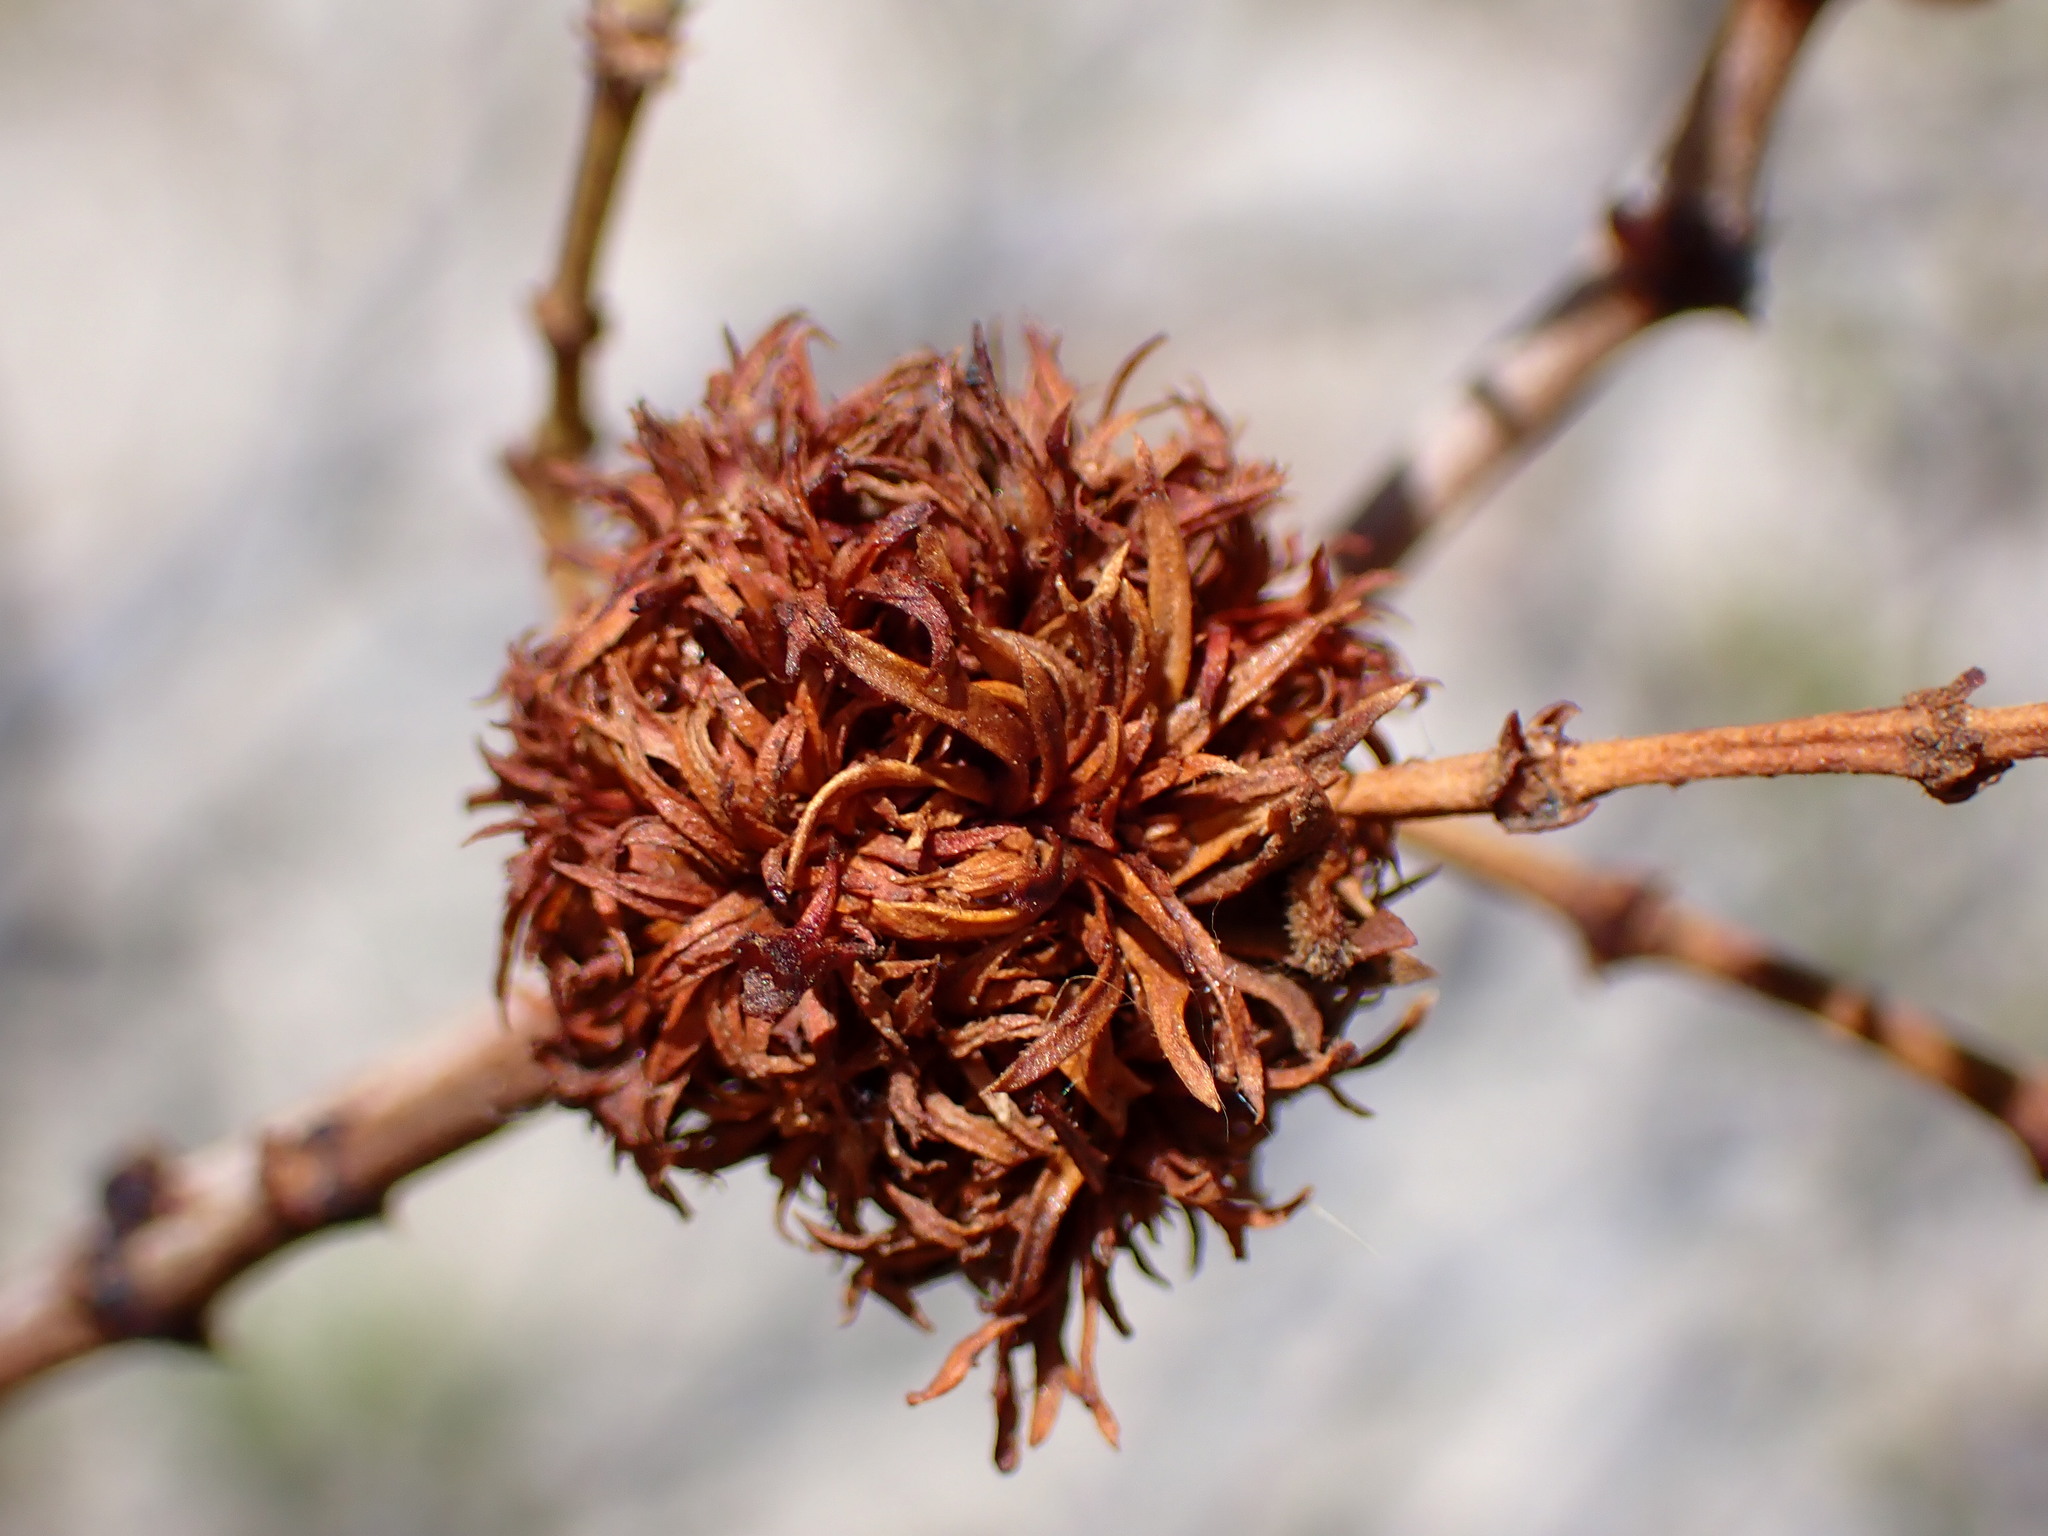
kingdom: Animalia
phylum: Arthropoda
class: Insecta
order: Diptera
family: Cecidomyiidae
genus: Asphondylia
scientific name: Asphondylia auripila
